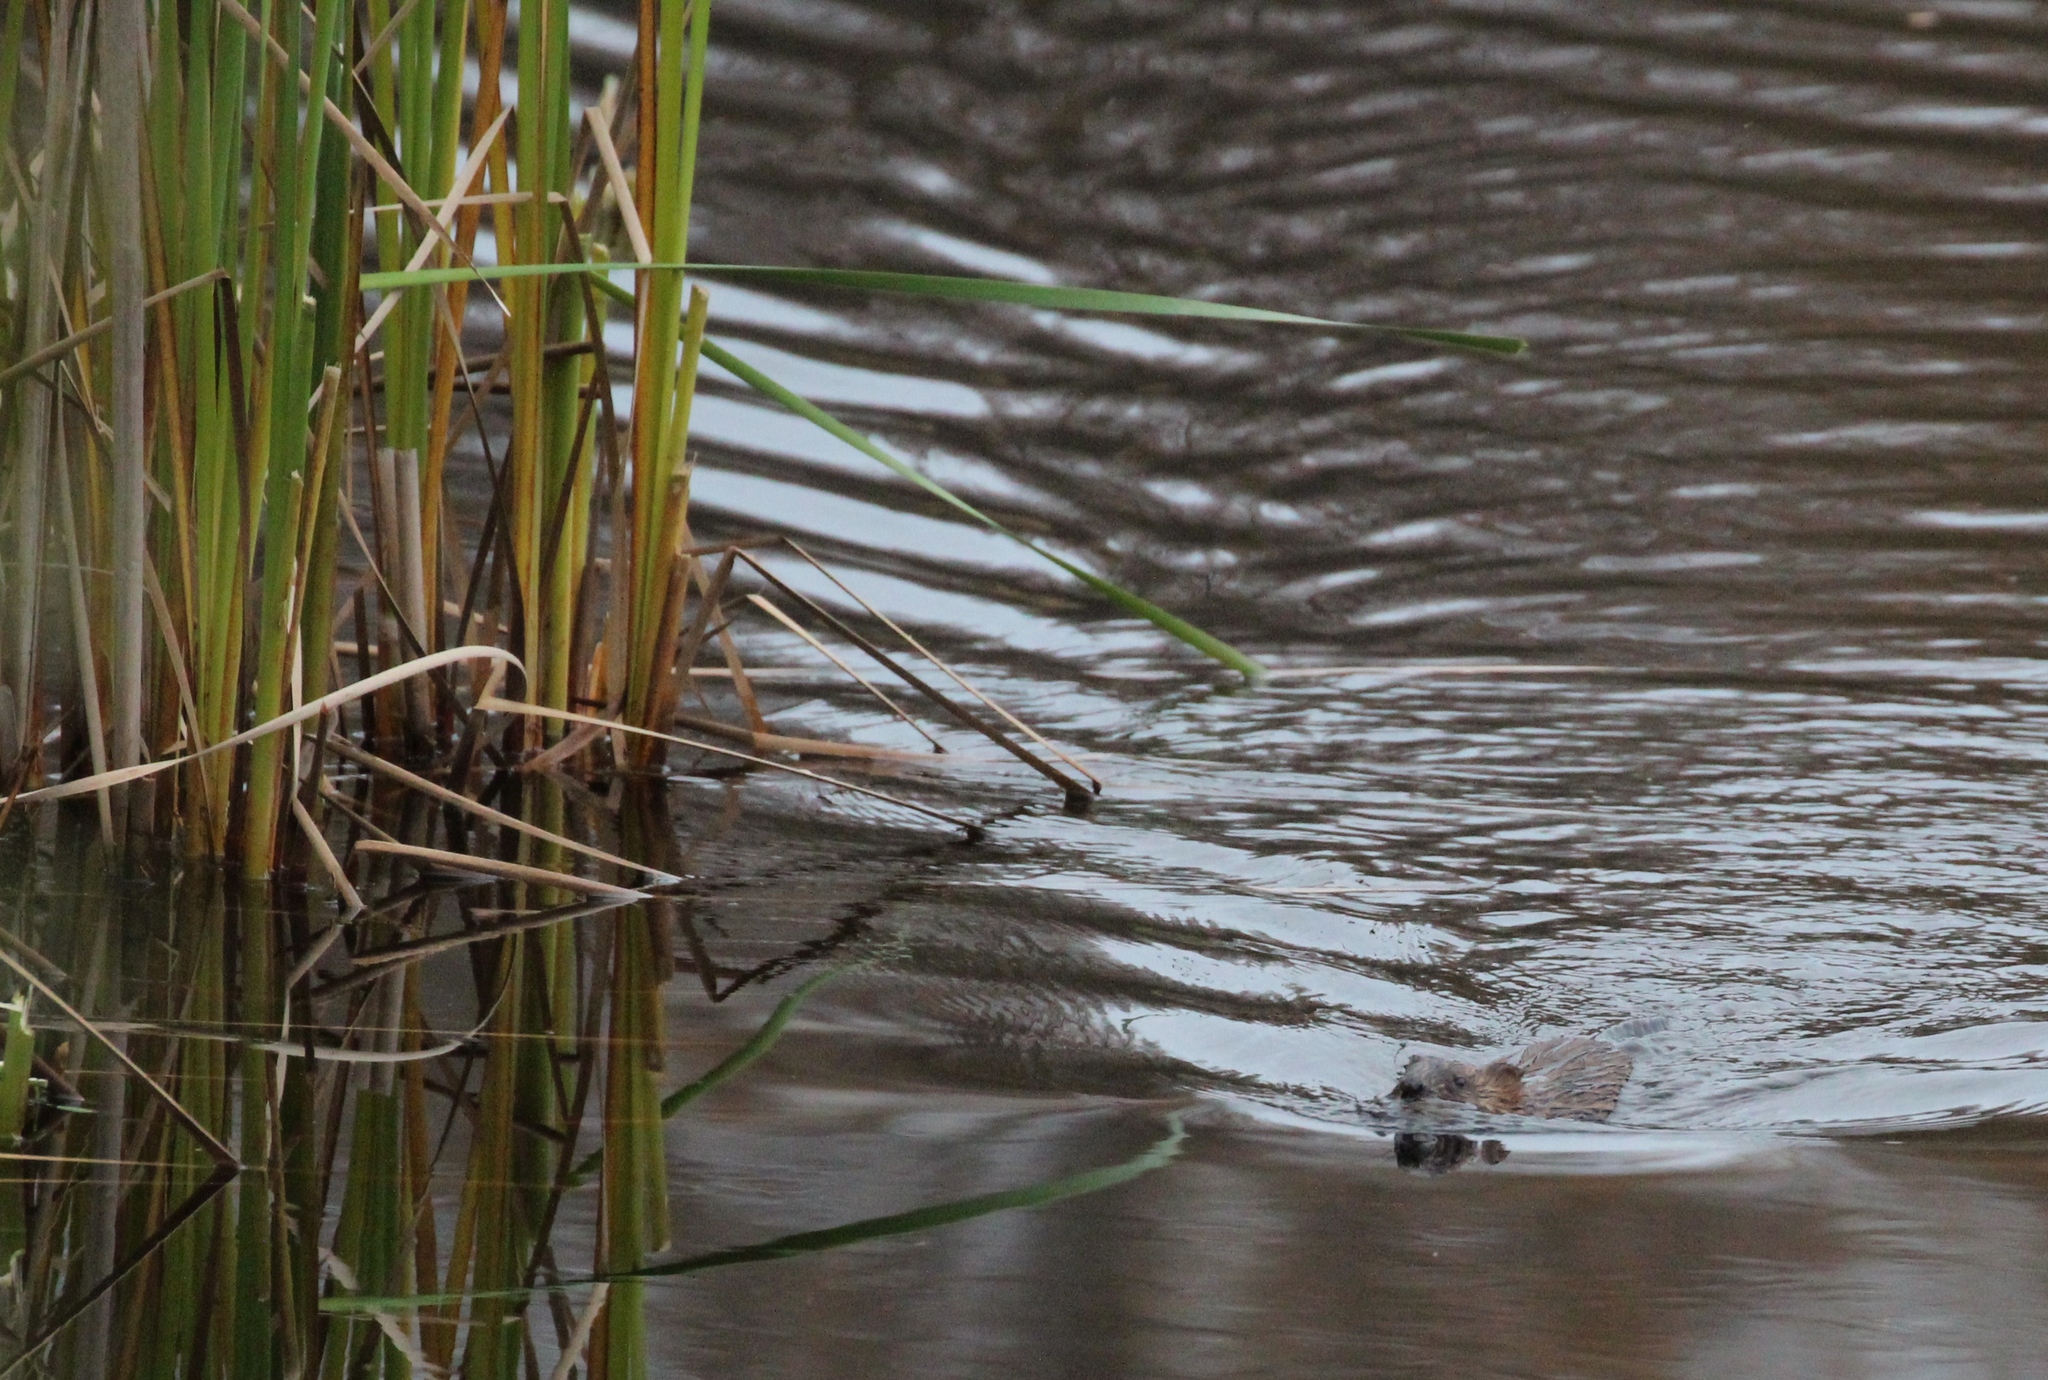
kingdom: Animalia
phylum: Chordata
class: Mammalia
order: Rodentia
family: Cricetidae
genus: Ondatra
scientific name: Ondatra zibethicus
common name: Muskrat
